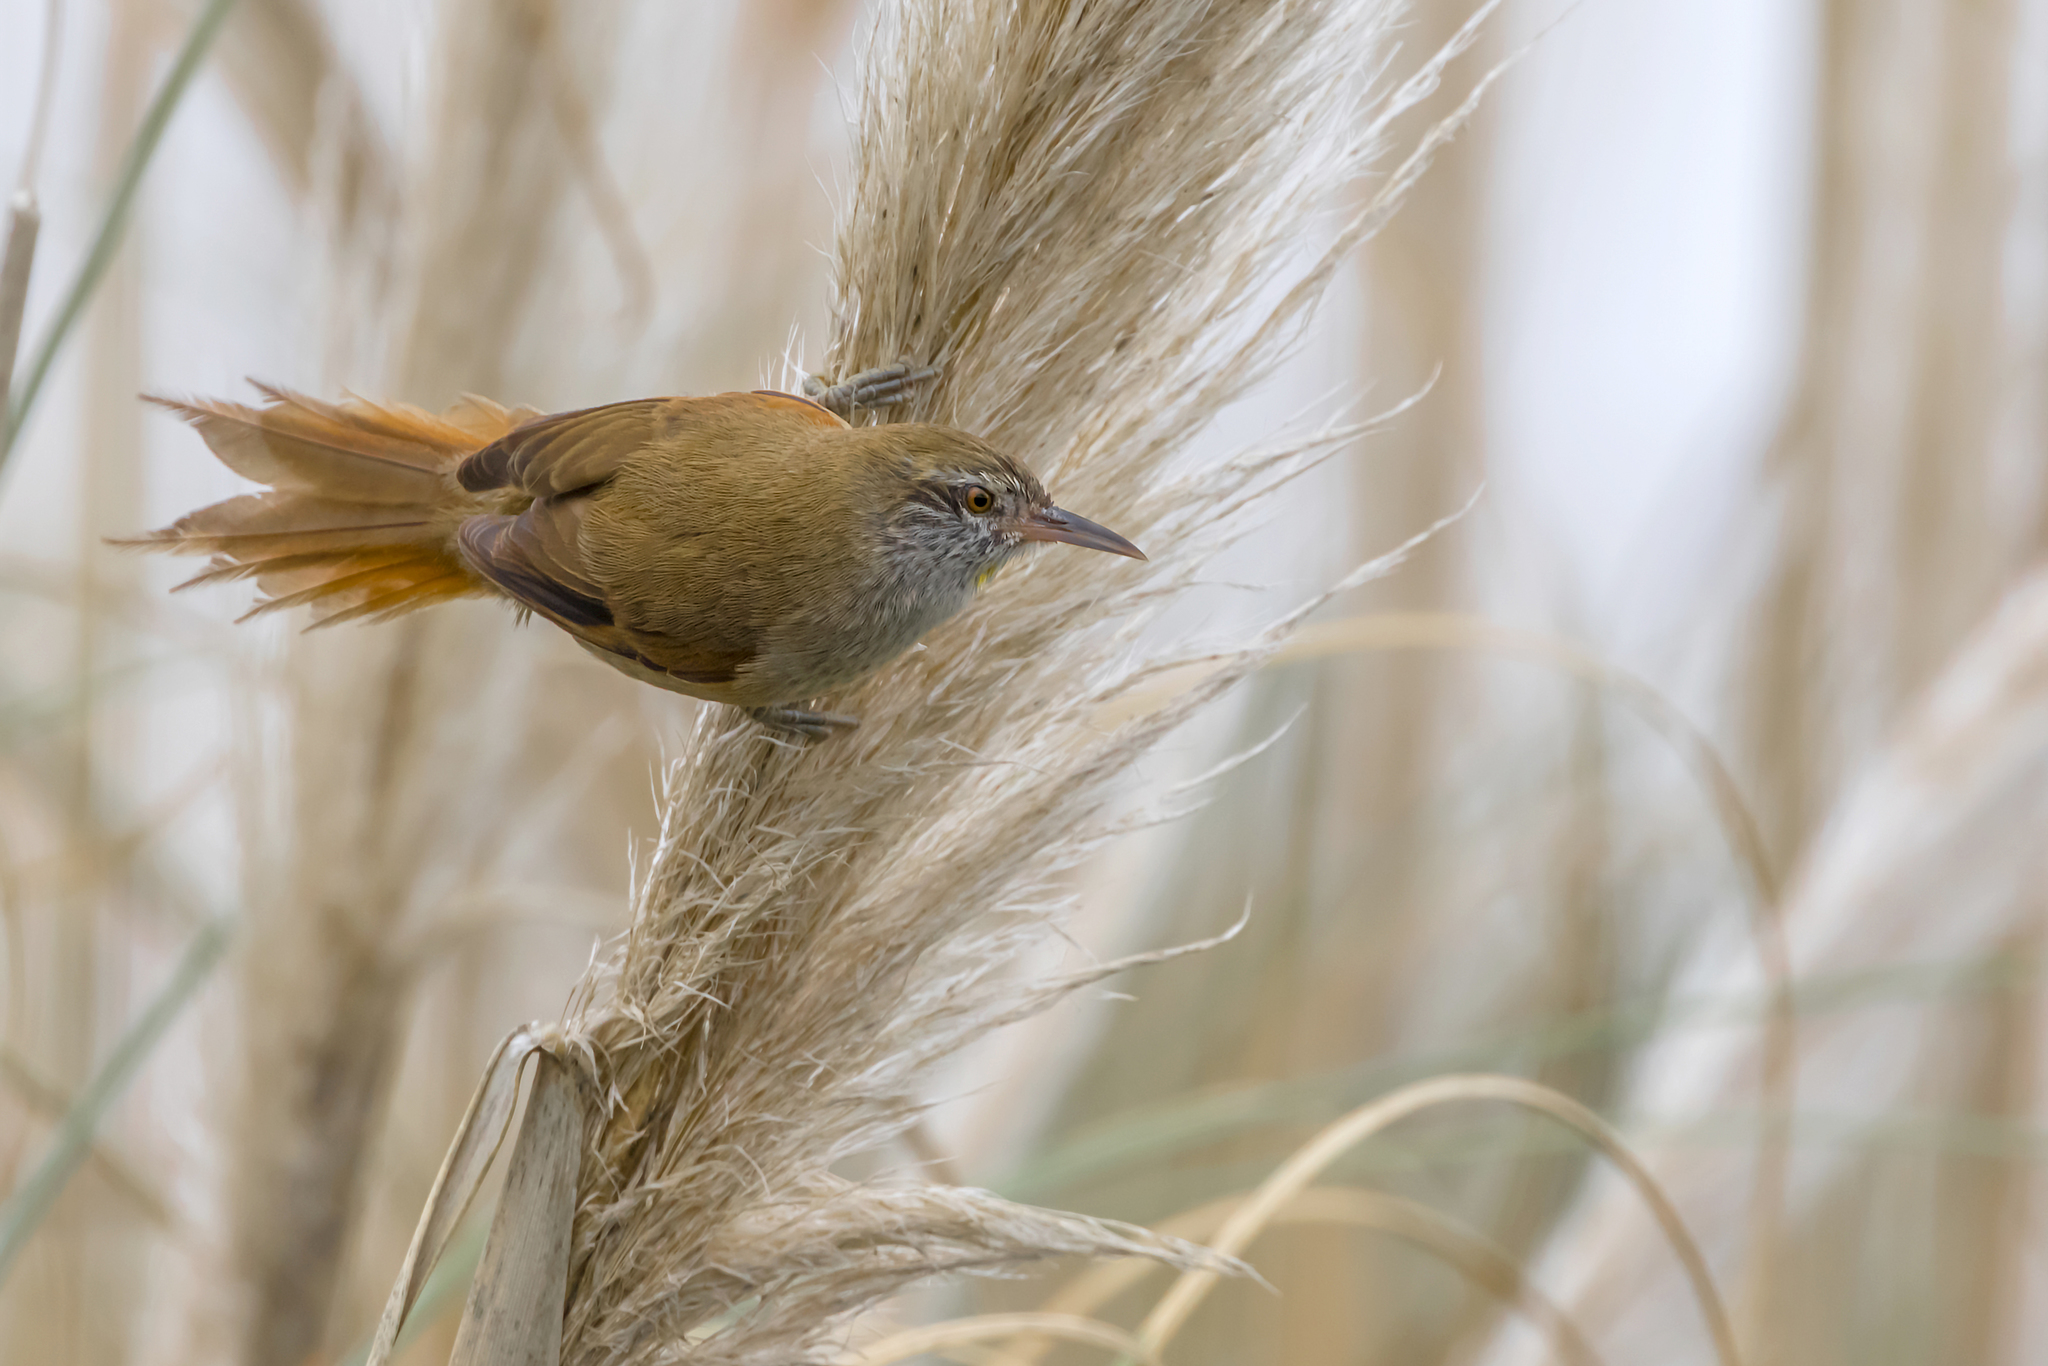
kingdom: Animalia
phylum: Chordata
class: Aves
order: Passeriformes
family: Furnariidae
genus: Cranioleuca
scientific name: Cranioleuca sulphurifera
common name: Sulphur-bearded spinetail
